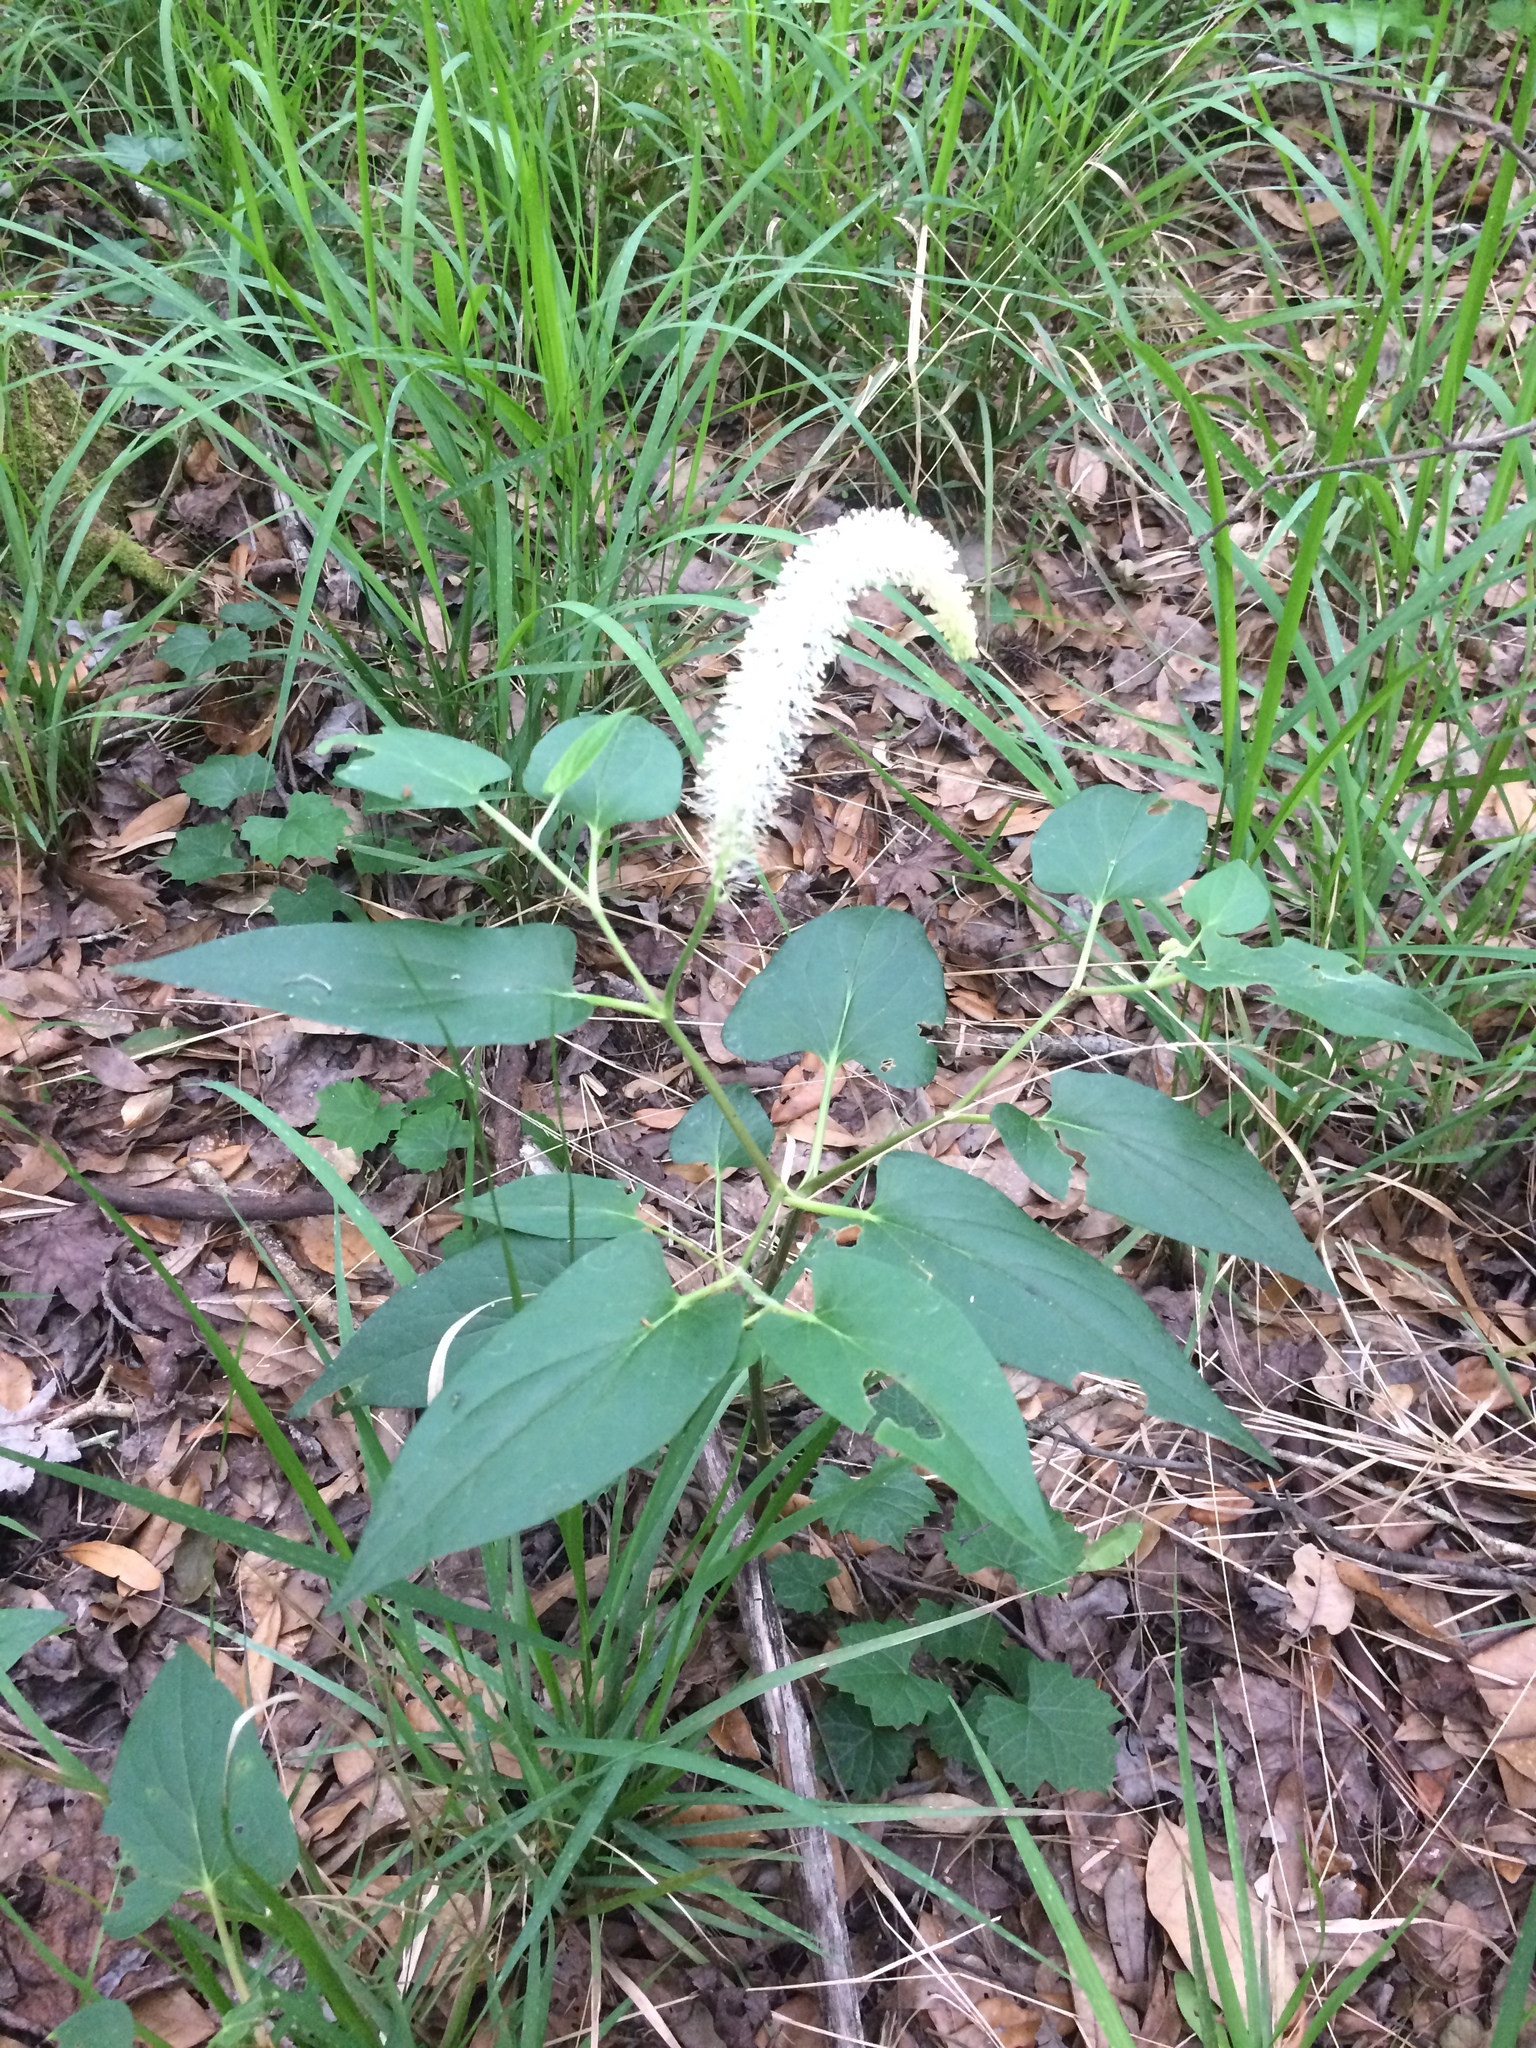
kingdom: Plantae
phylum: Tracheophyta
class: Magnoliopsida
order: Piperales
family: Saururaceae
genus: Saururus
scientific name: Saururus cernuus
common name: Lizard's-tail
